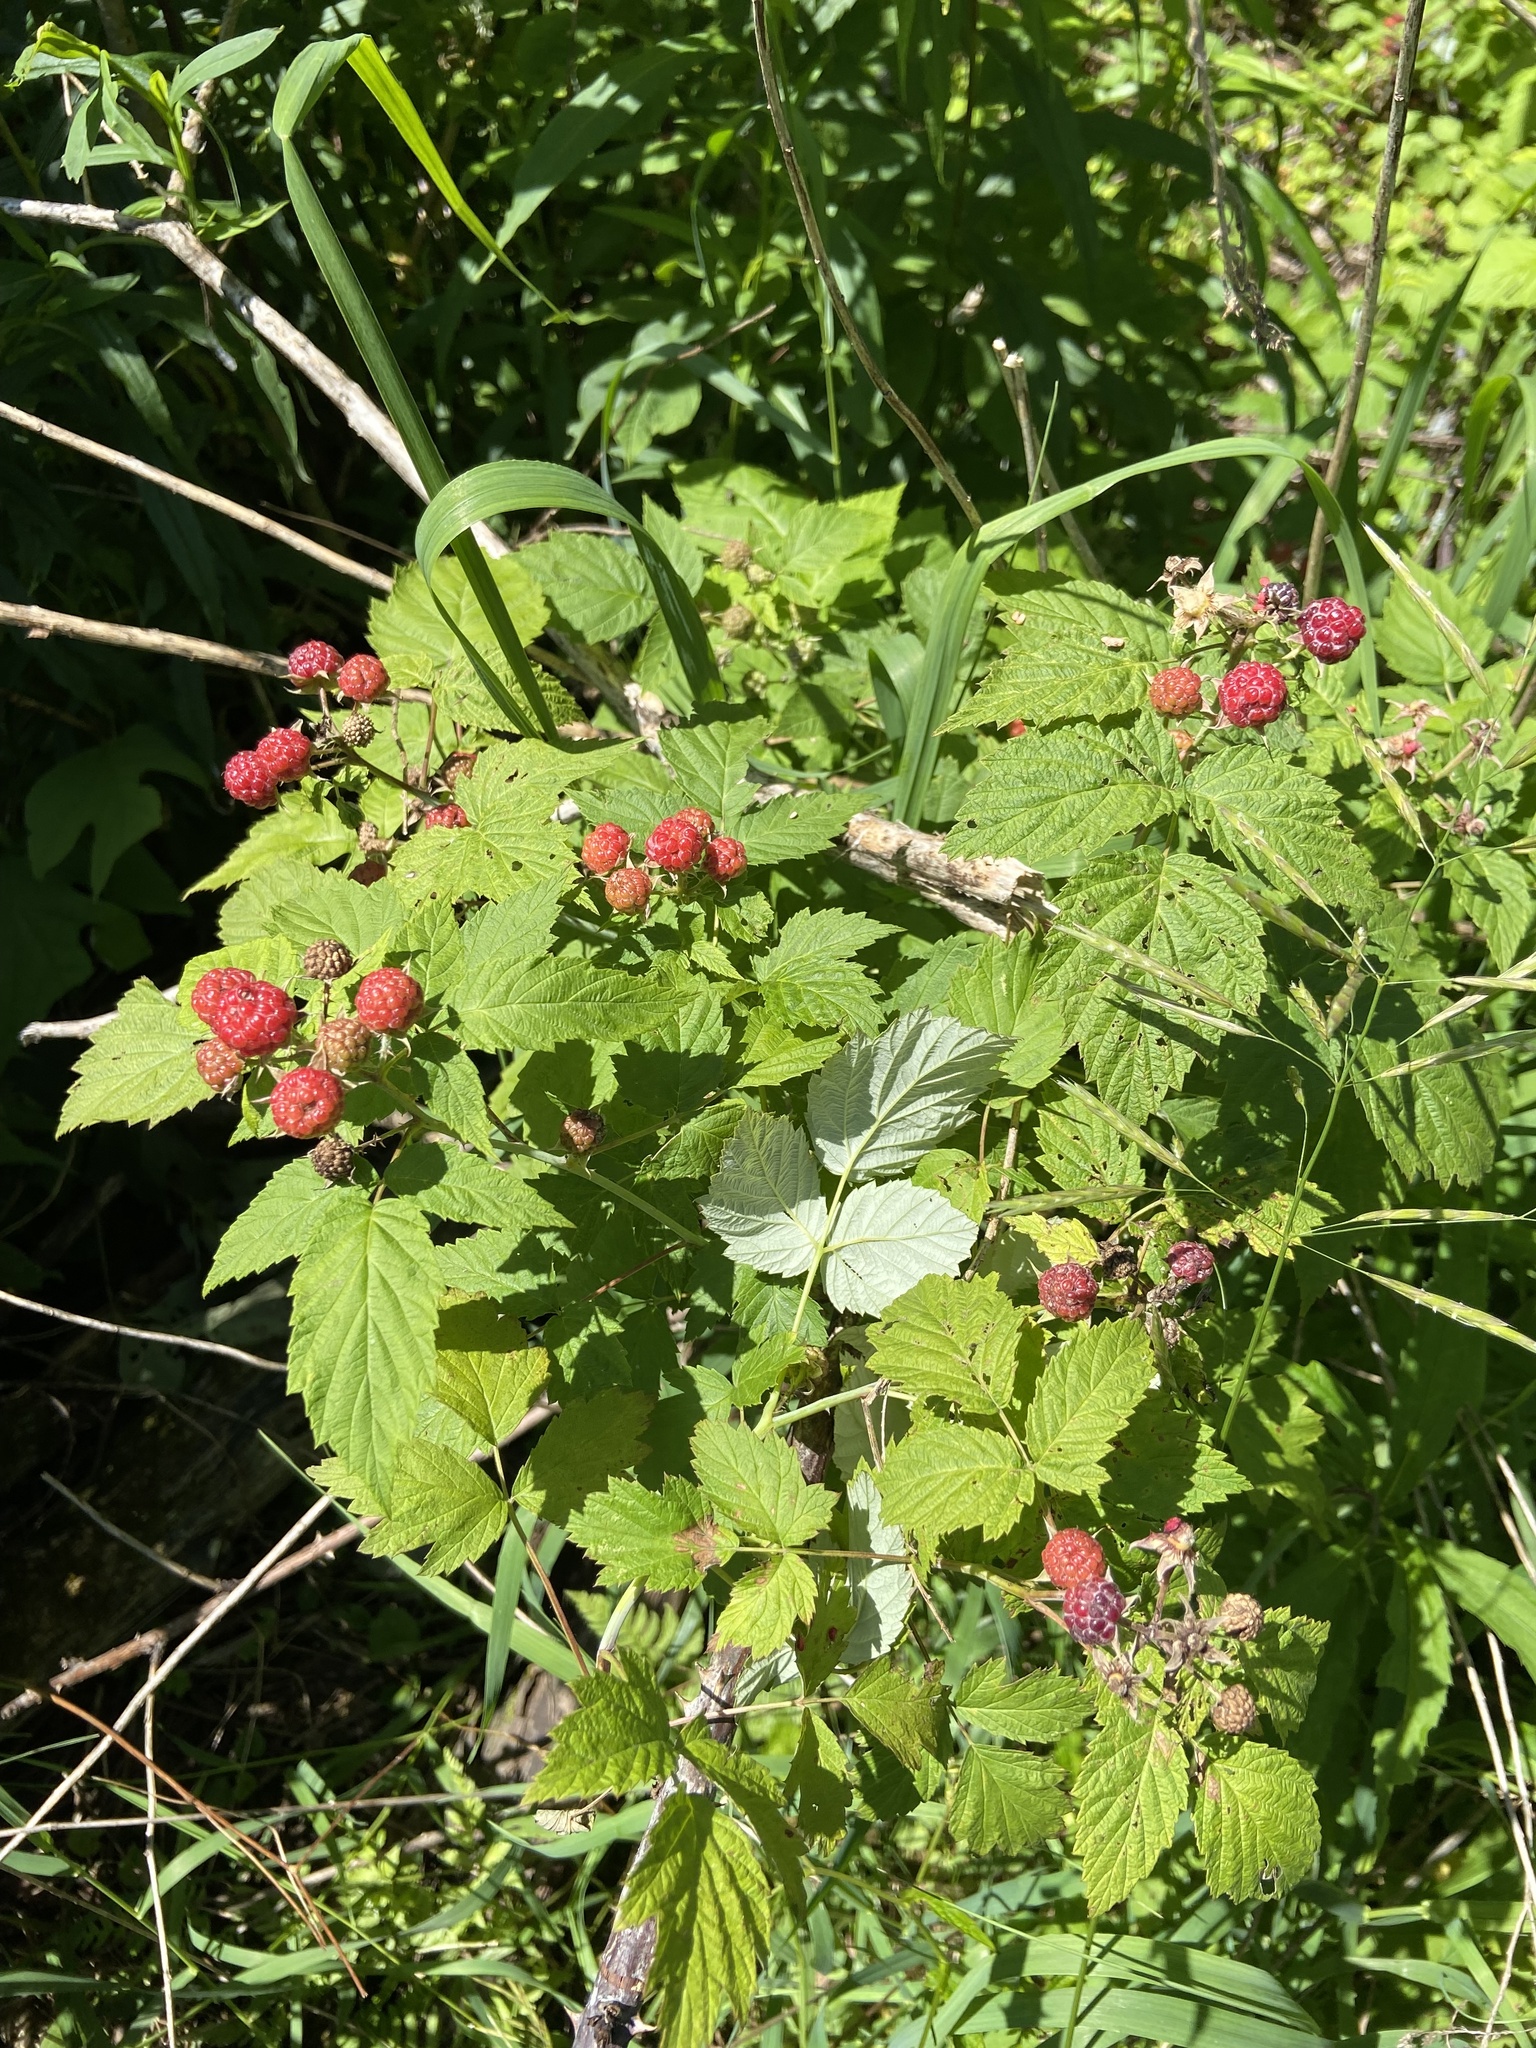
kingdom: Plantae
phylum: Tracheophyta
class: Magnoliopsida
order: Rosales
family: Rosaceae
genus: Rubus
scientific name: Rubus occidentalis
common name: Black raspberry
